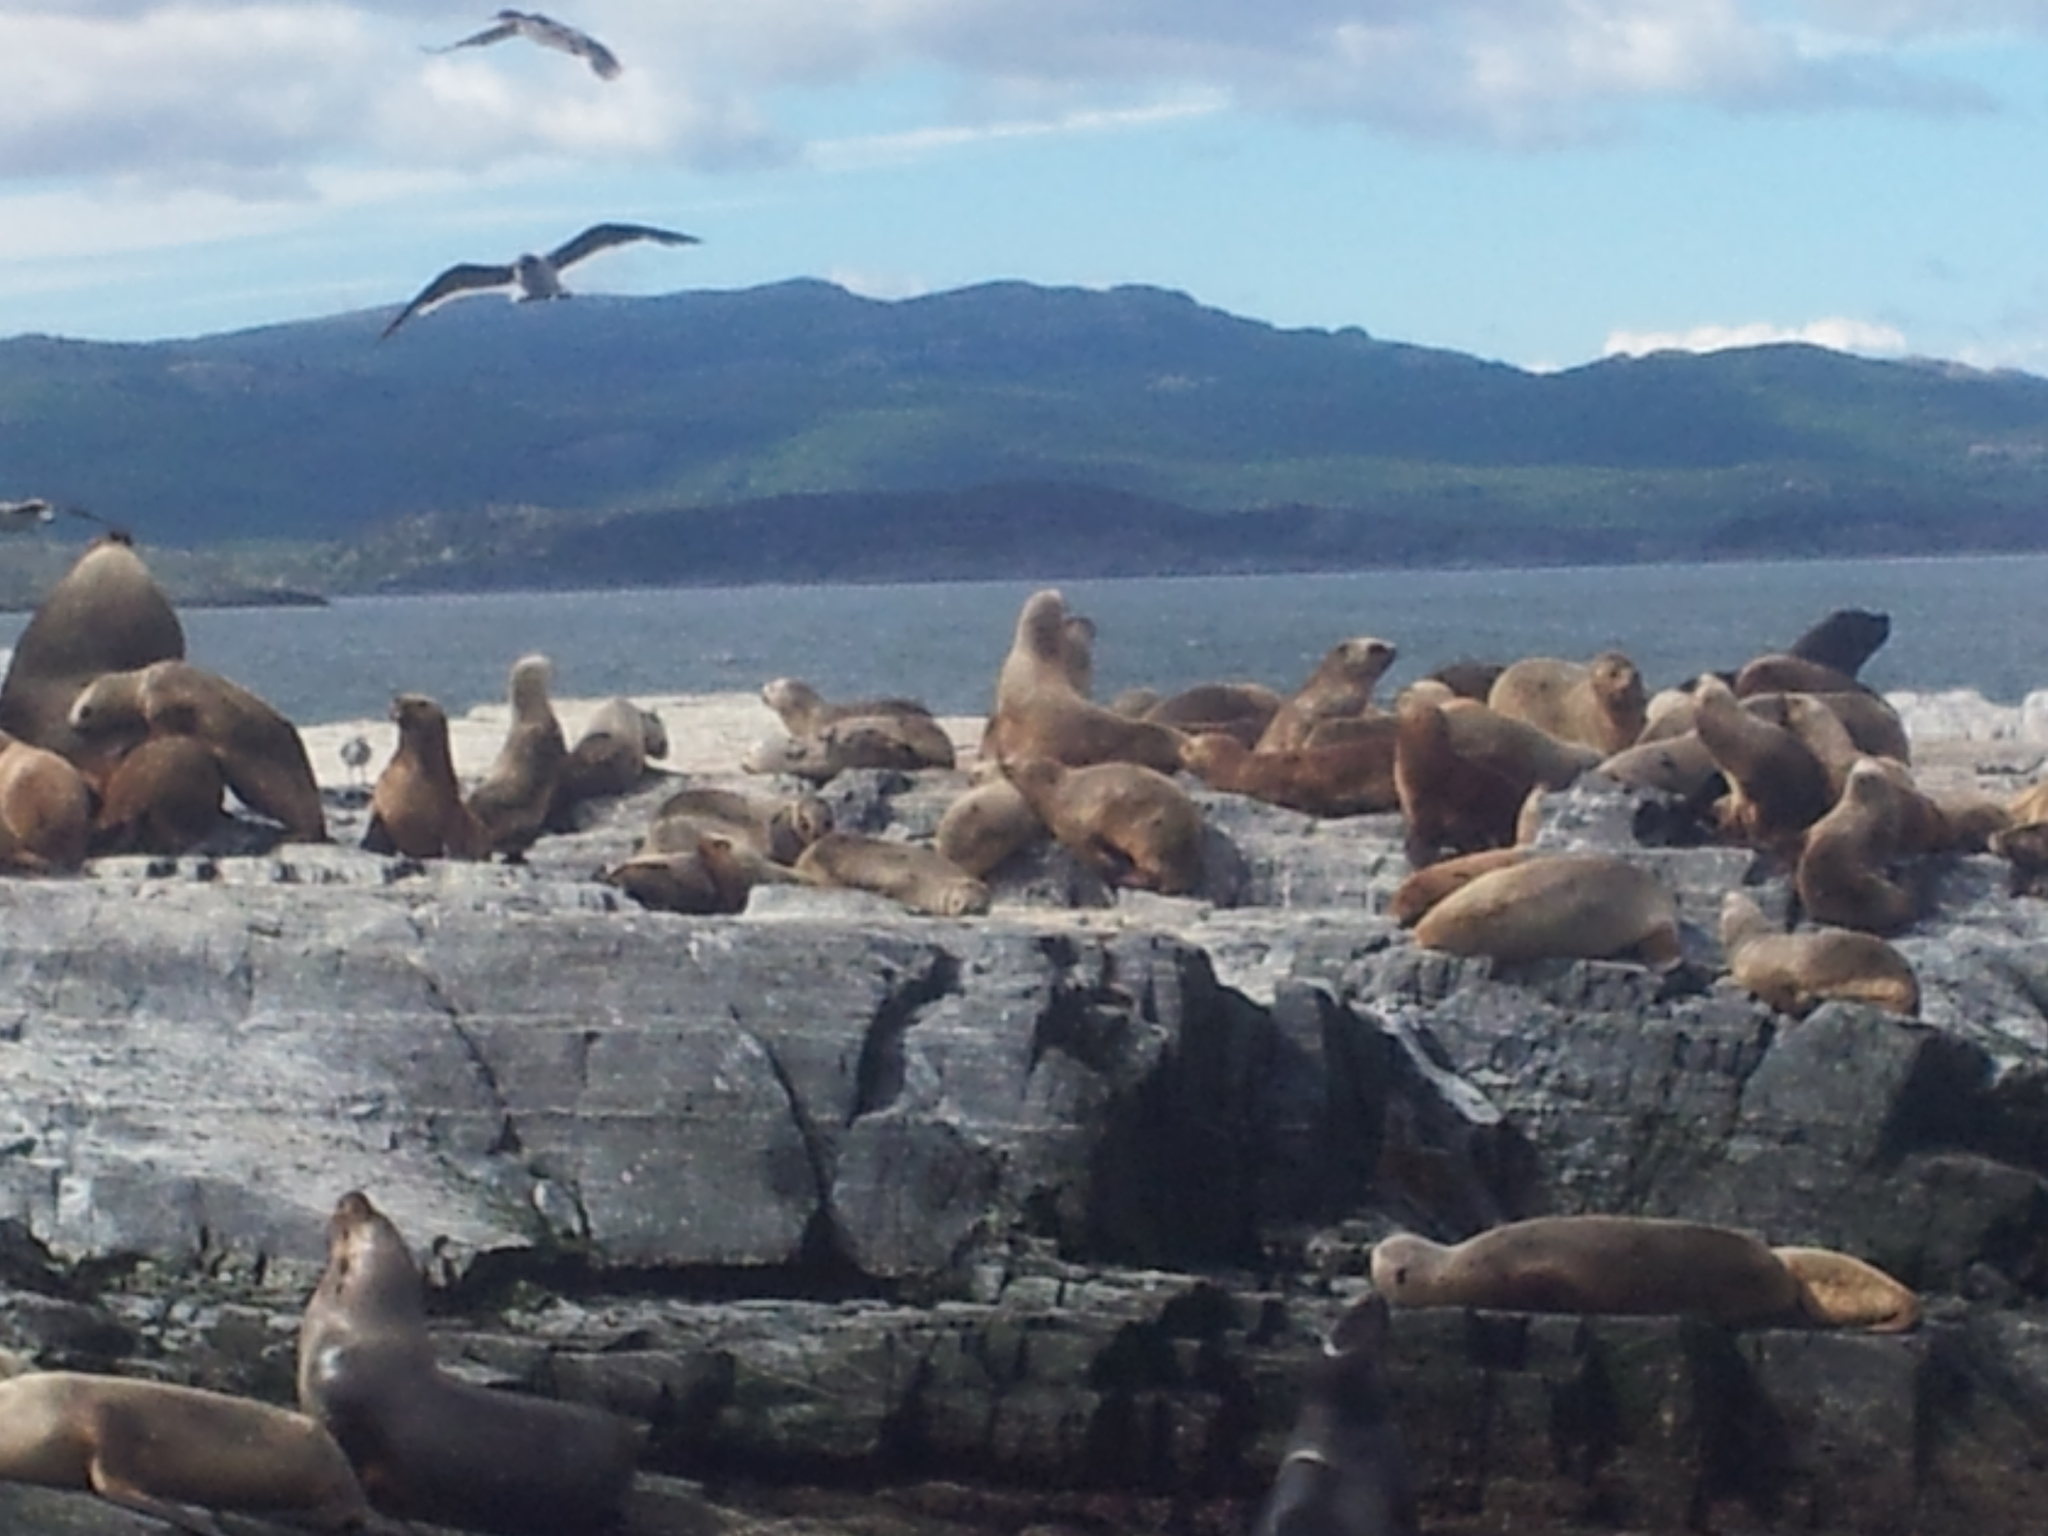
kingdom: Animalia
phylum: Chordata
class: Mammalia
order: Carnivora
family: Otariidae
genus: Otaria
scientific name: Otaria byronia
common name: South american sea lion
